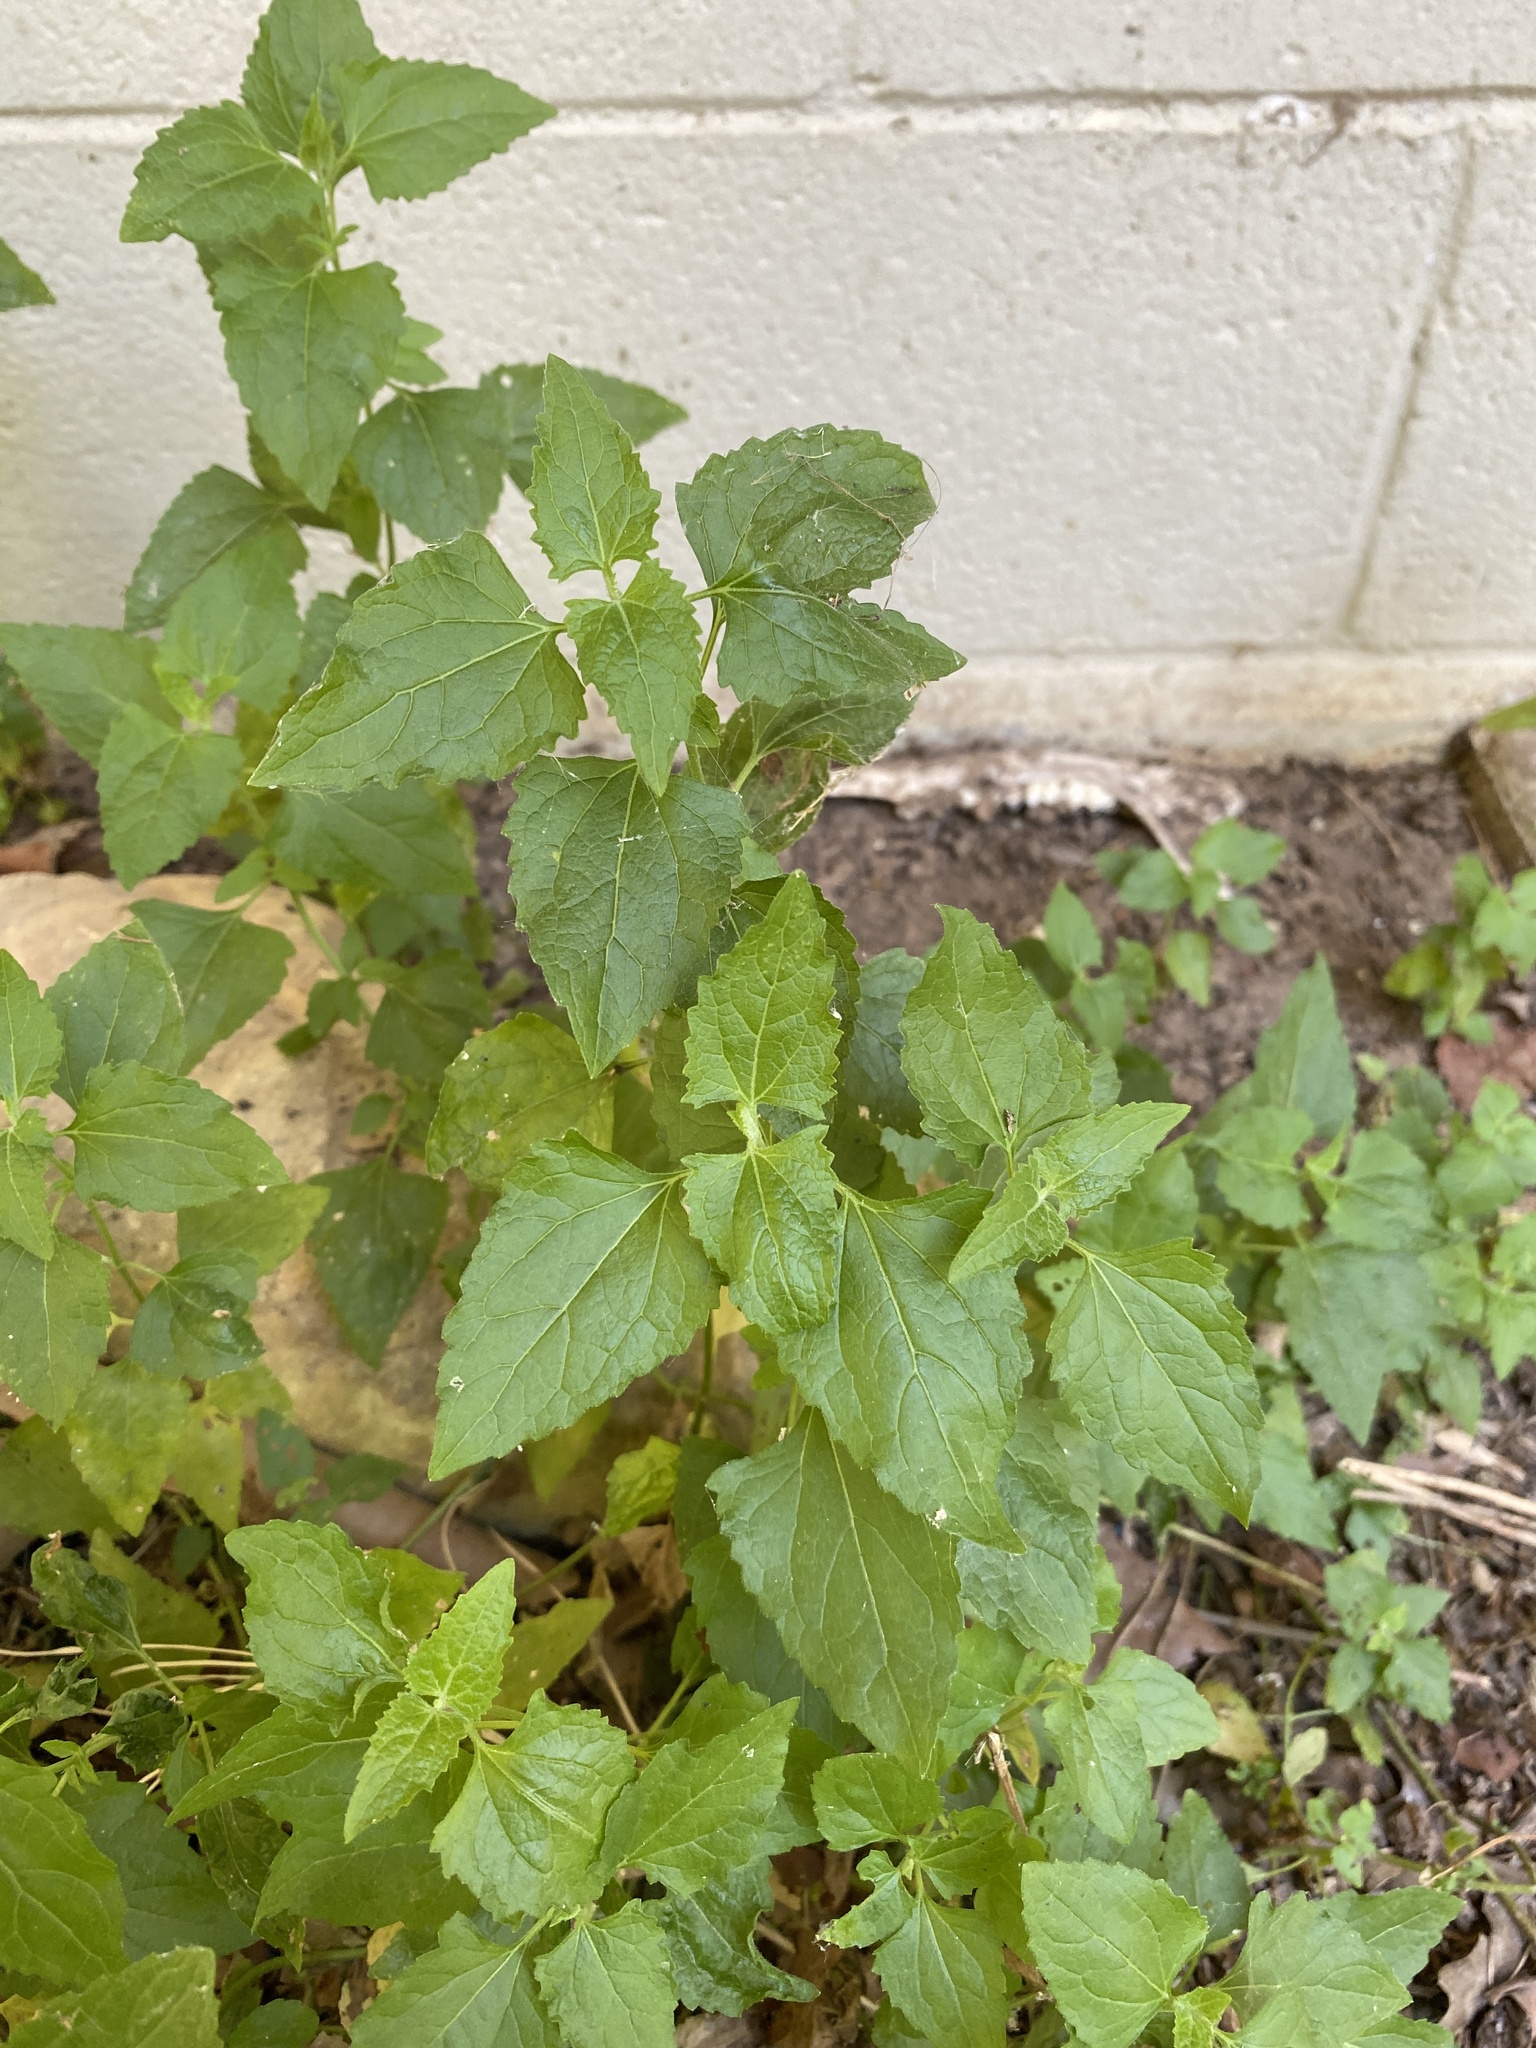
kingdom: Plantae
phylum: Tracheophyta
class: Magnoliopsida
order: Asterales
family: Asteraceae
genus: Ageratina
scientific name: Ageratina altissima
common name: White snakeroot
